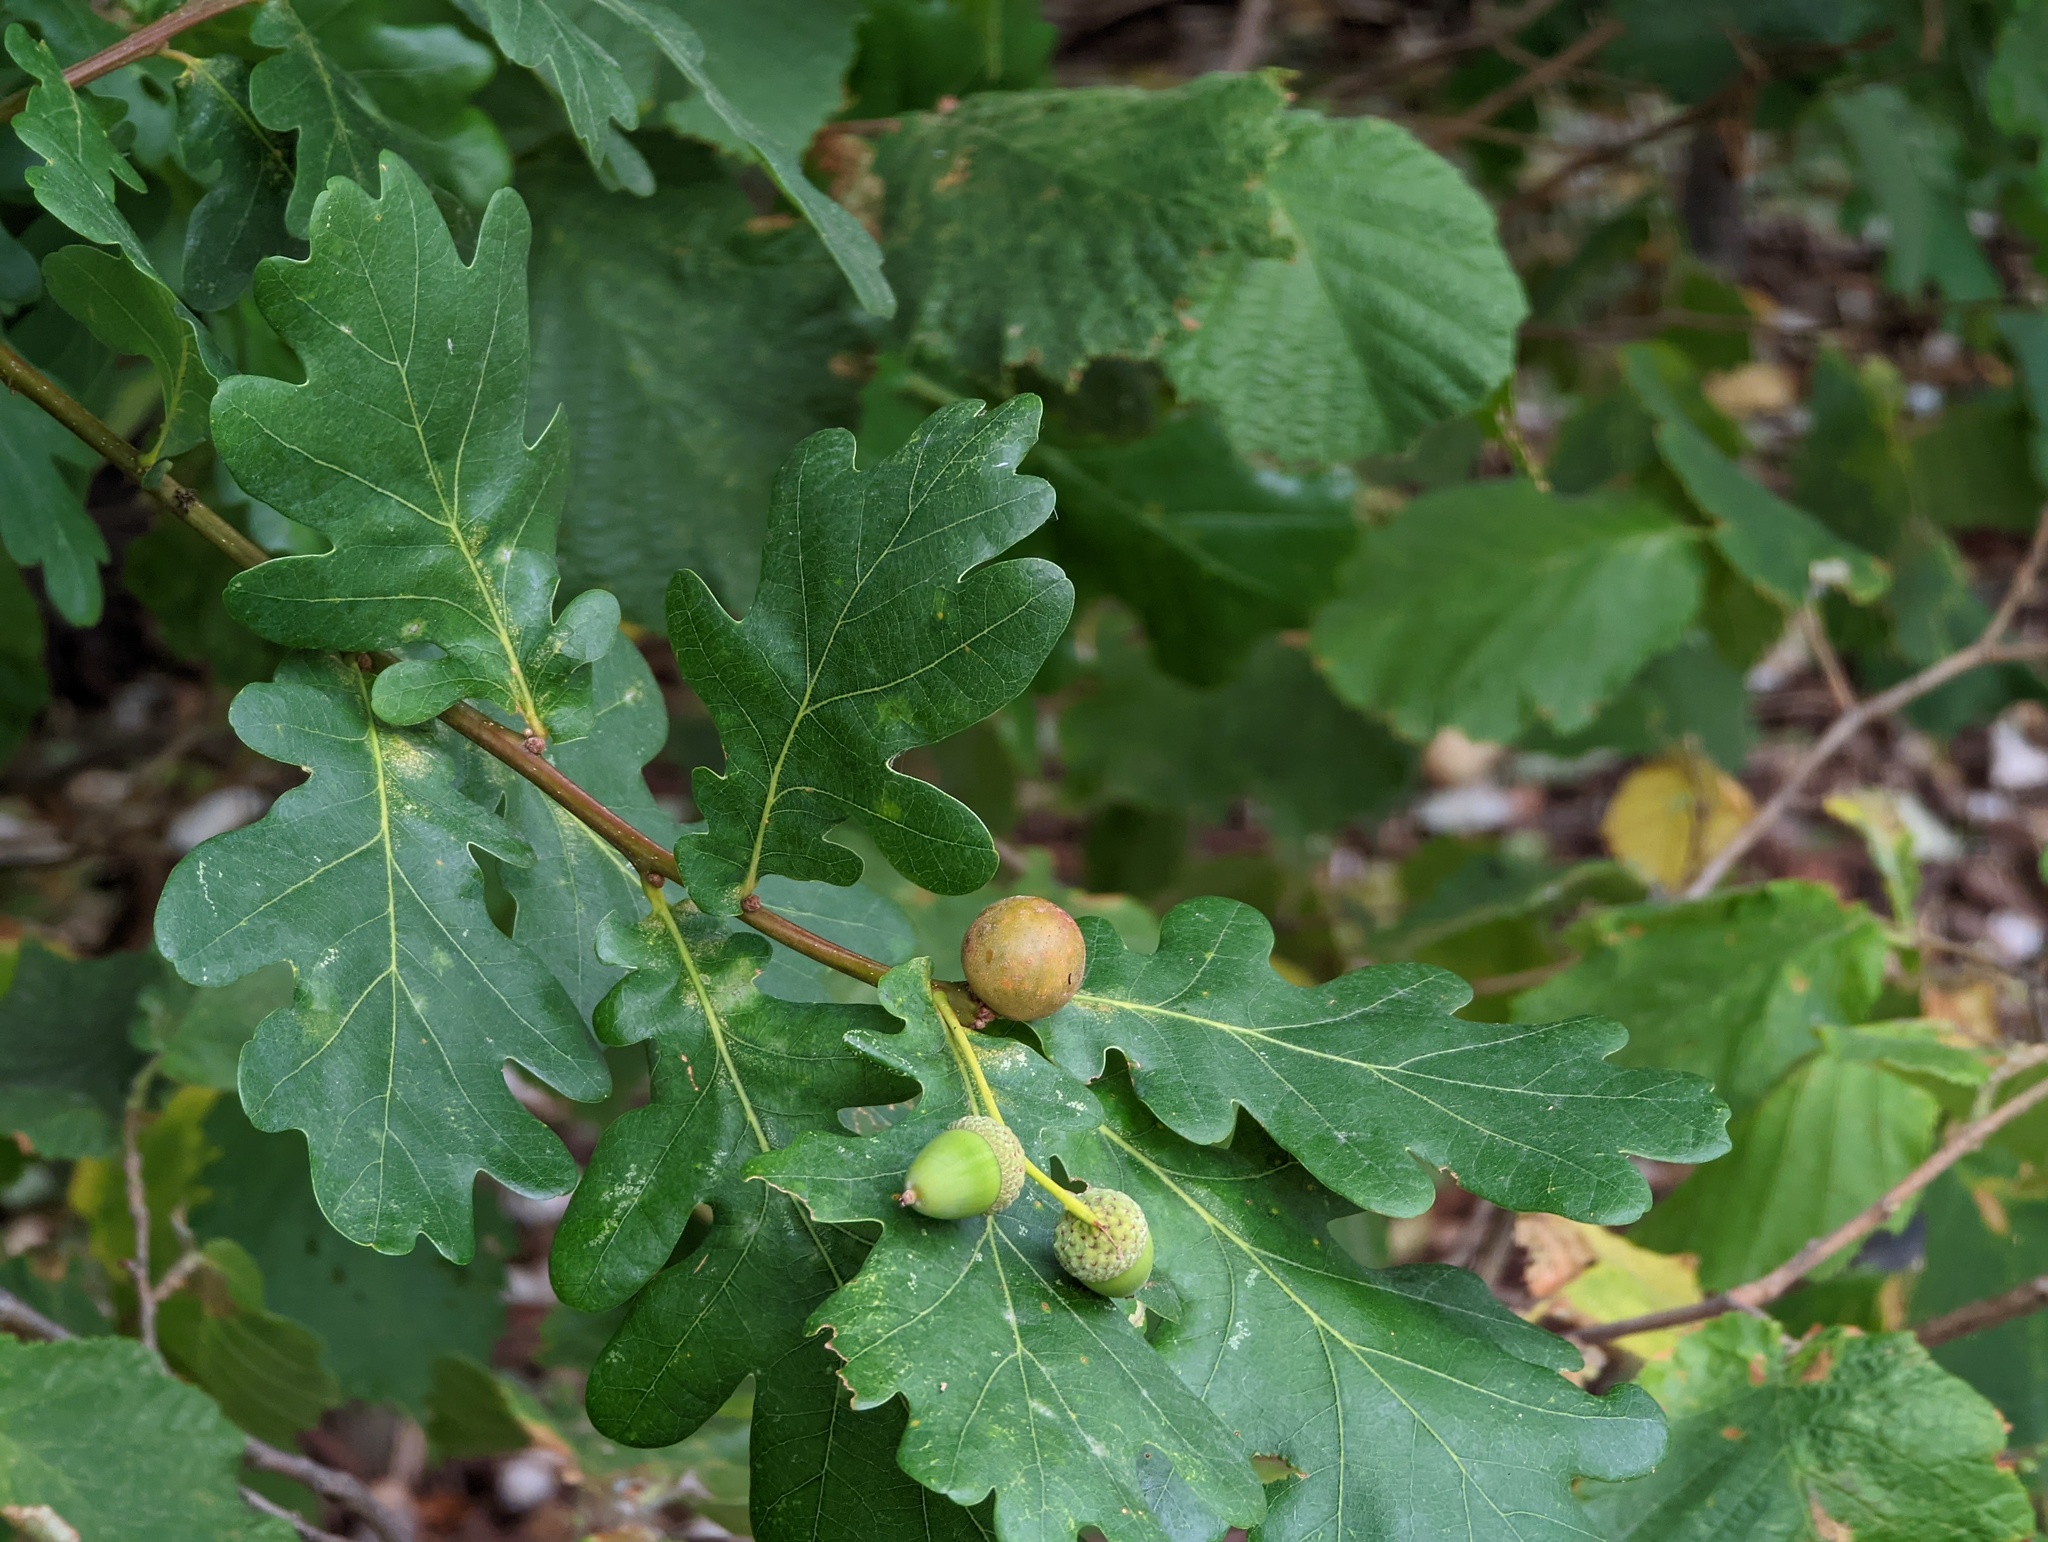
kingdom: Animalia
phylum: Arthropoda
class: Insecta
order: Hymenoptera
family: Cynipidae
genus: Andricus
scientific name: Andricus kollari
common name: Marble gall
